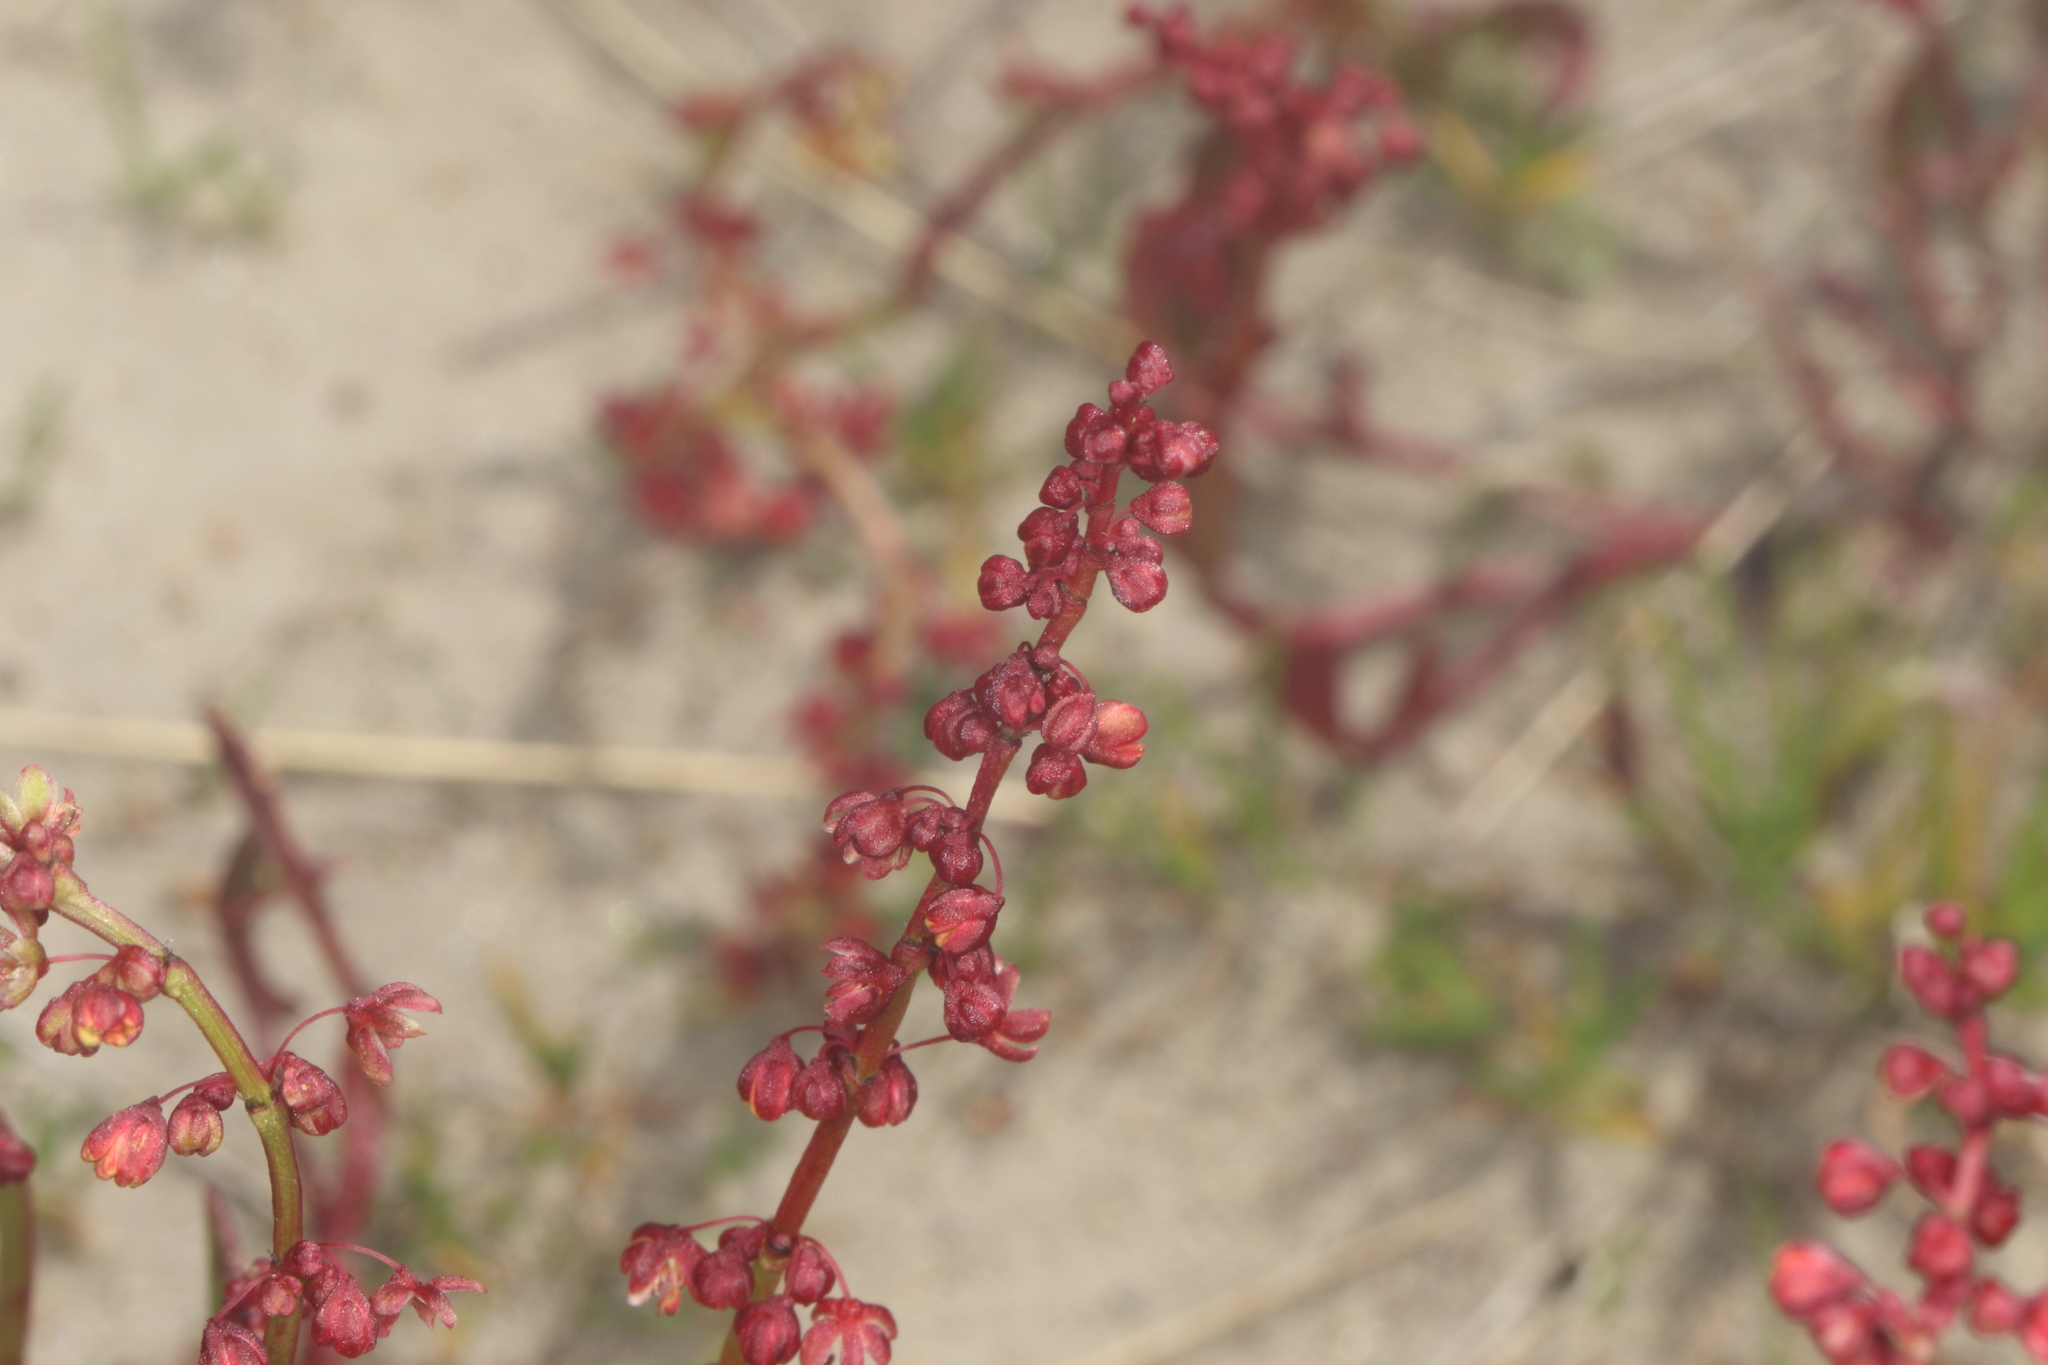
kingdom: Plantae
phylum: Tracheophyta
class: Magnoliopsida
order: Caryophyllales
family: Polygonaceae
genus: Rumex
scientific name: Rumex acetosella
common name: Common sheep sorrel
